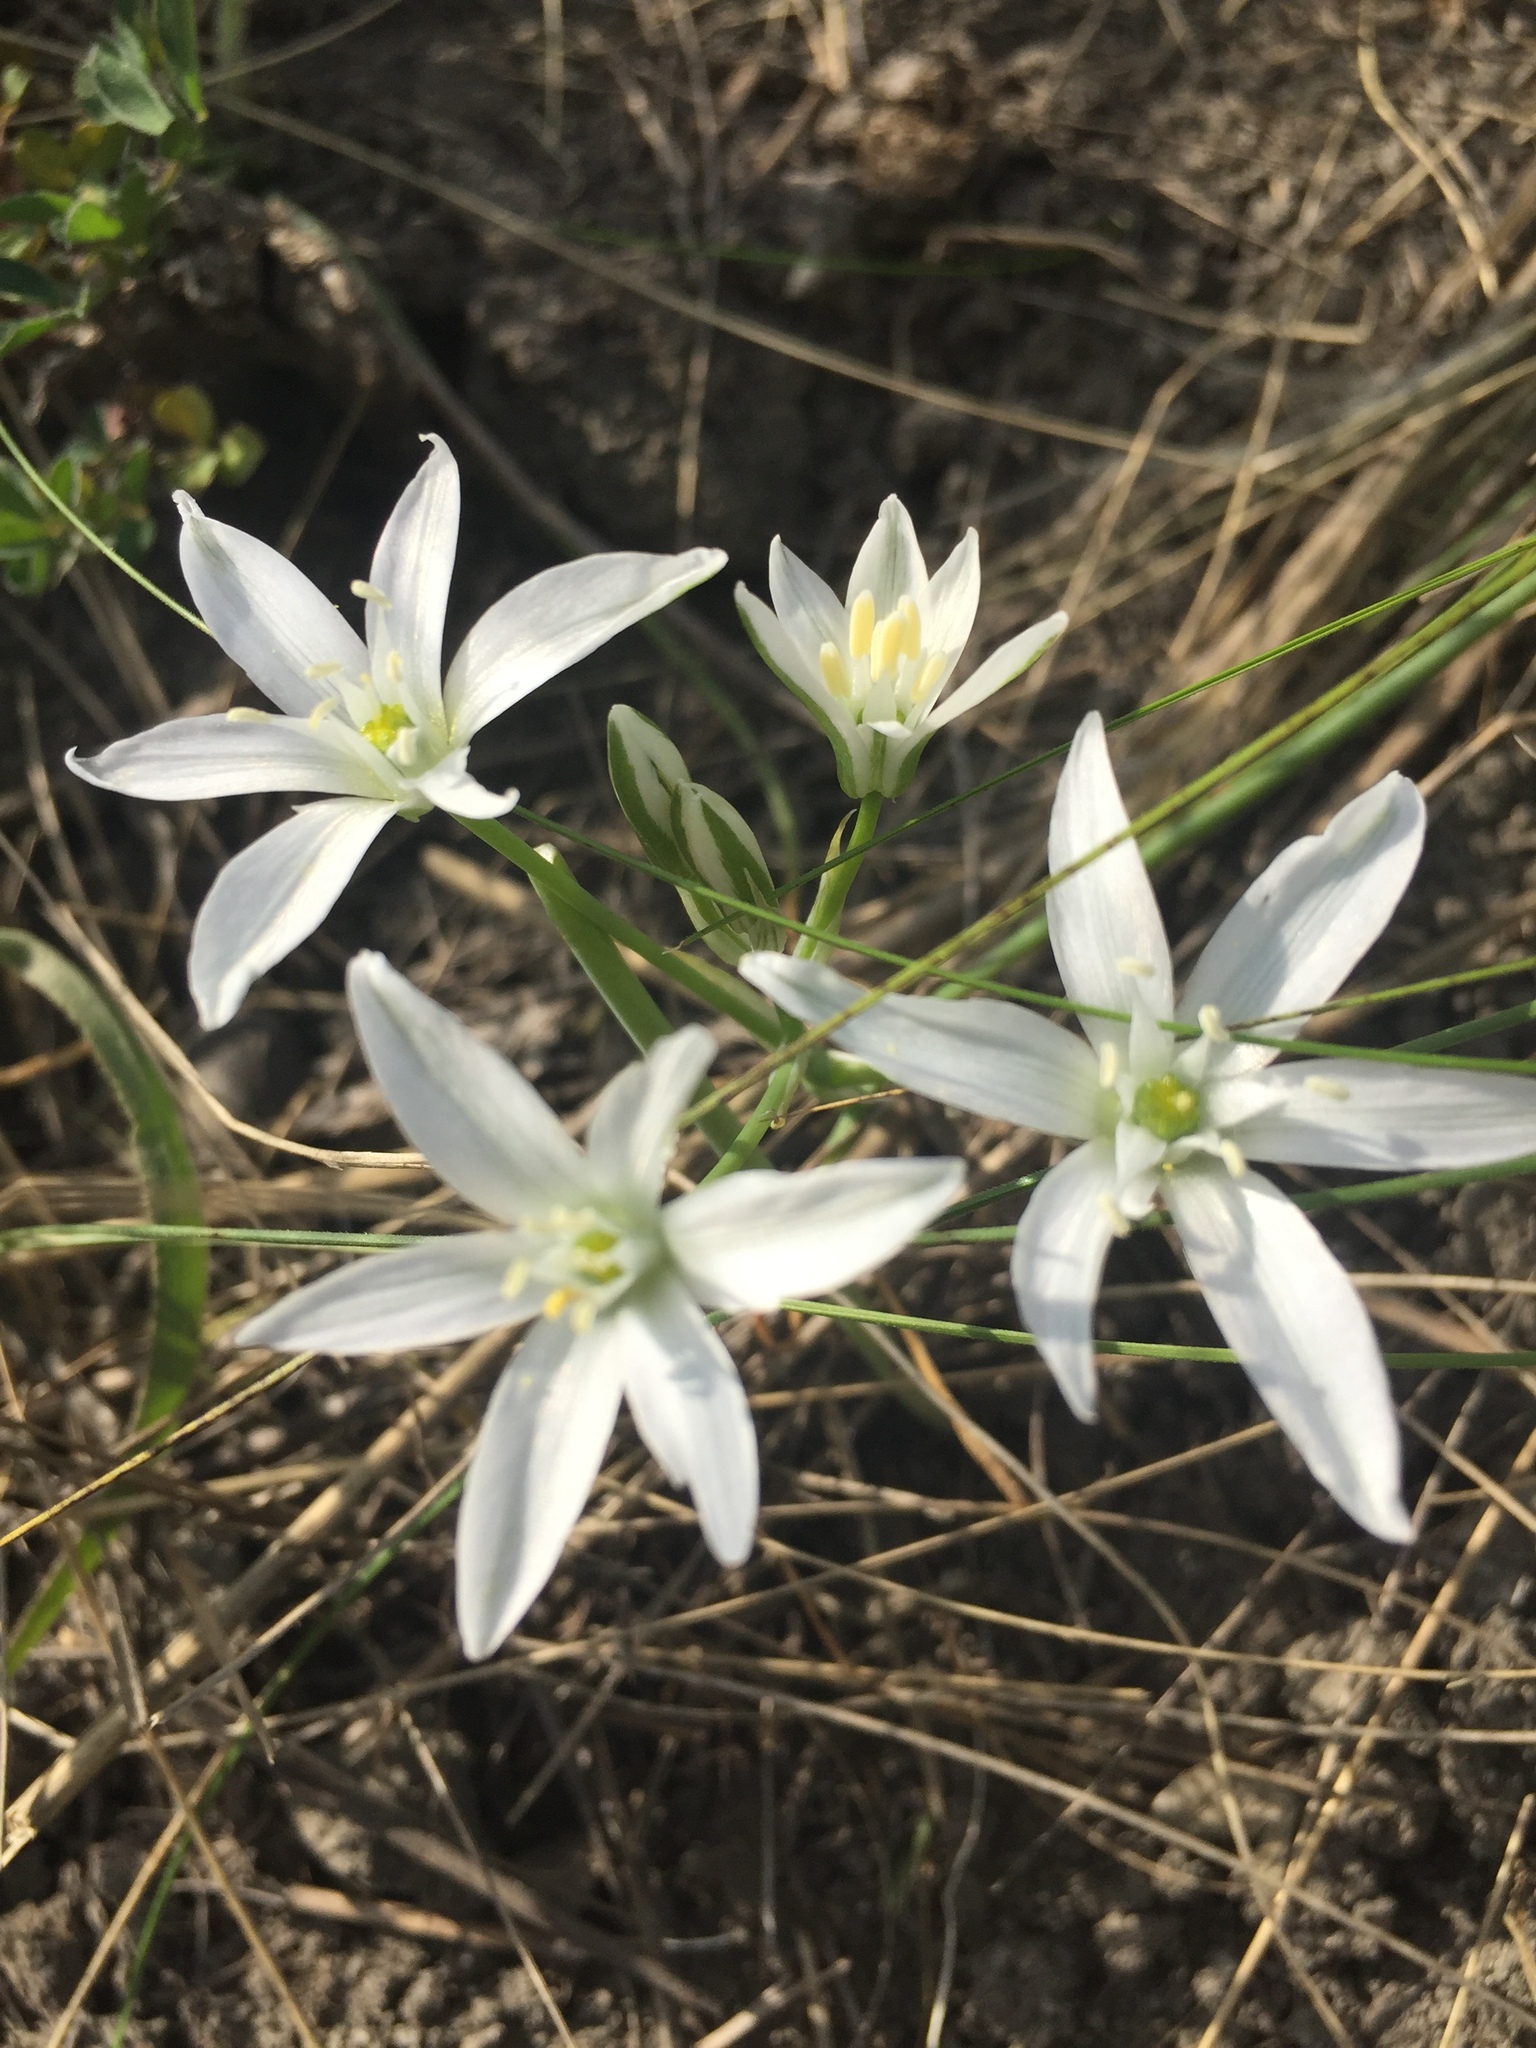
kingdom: Plantae
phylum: Tracheophyta
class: Liliopsida
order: Asparagales
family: Asparagaceae
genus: Ornithogalum
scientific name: Ornithogalum orthophyllum
